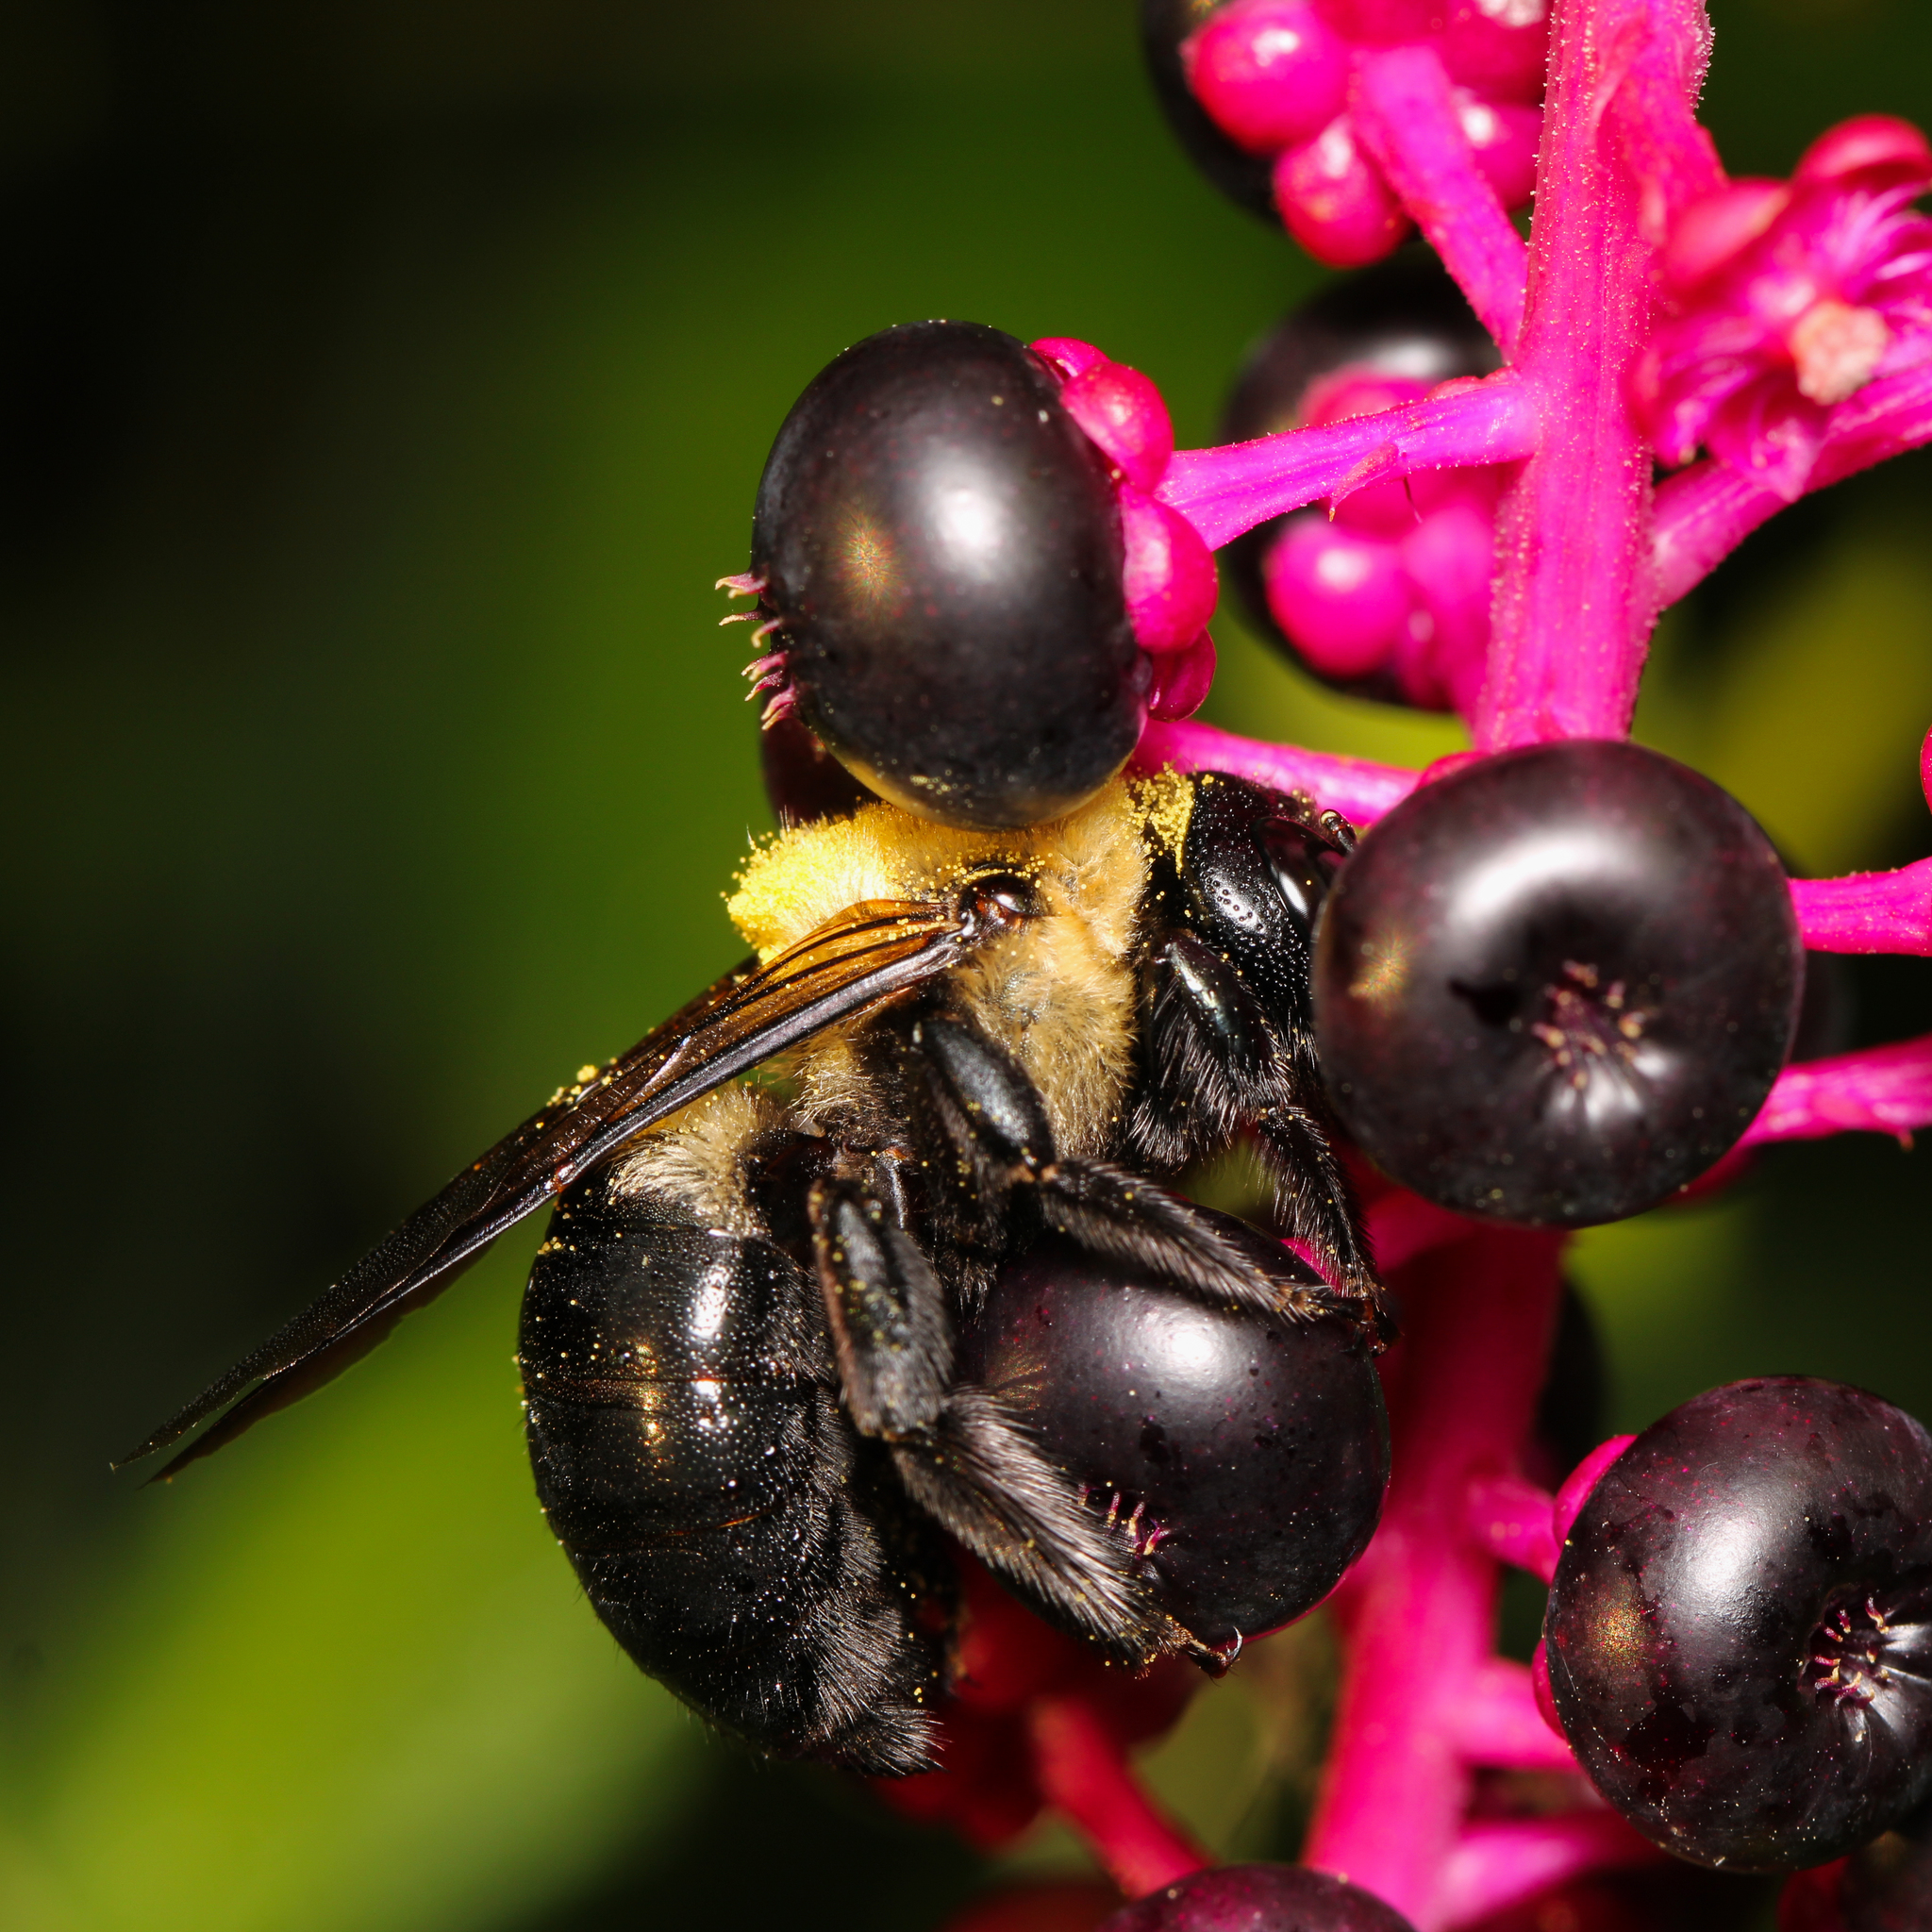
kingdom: Animalia
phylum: Arthropoda
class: Insecta
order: Hymenoptera
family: Apidae
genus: Xylocopa
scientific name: Xylocopa virginica
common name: Carpenter bee
